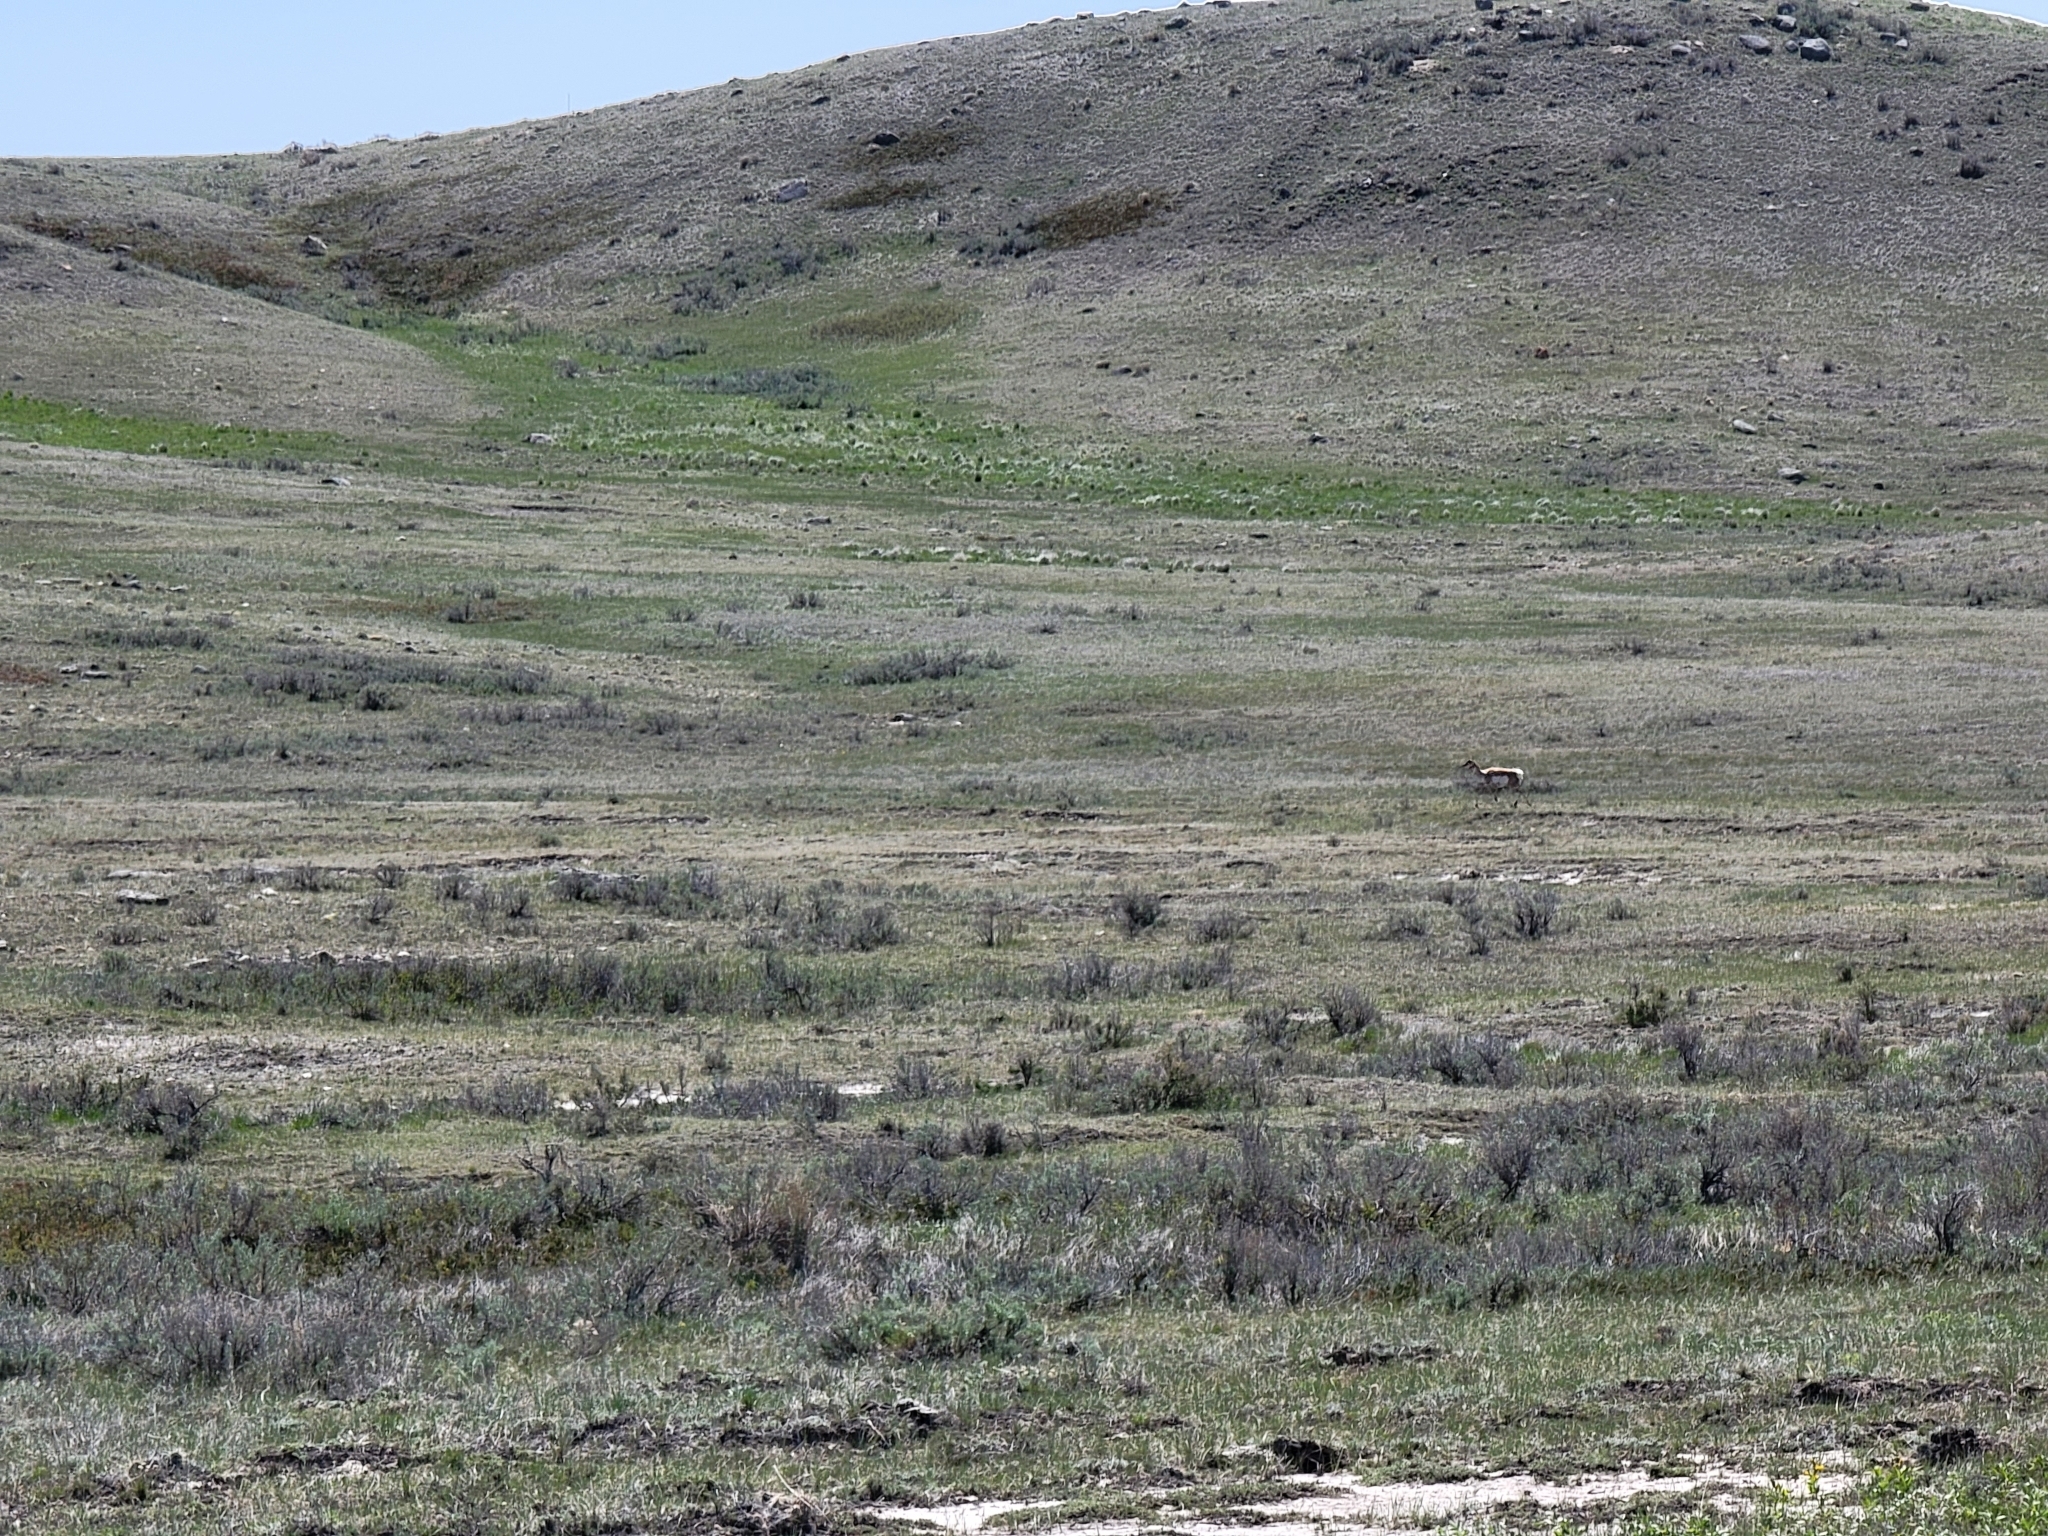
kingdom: Animalia
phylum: Chordata
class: Mammalia
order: Artiodactyla
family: Antilocapridae
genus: Antilocapra
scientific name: Antilocapra americana
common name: Pronghorn
